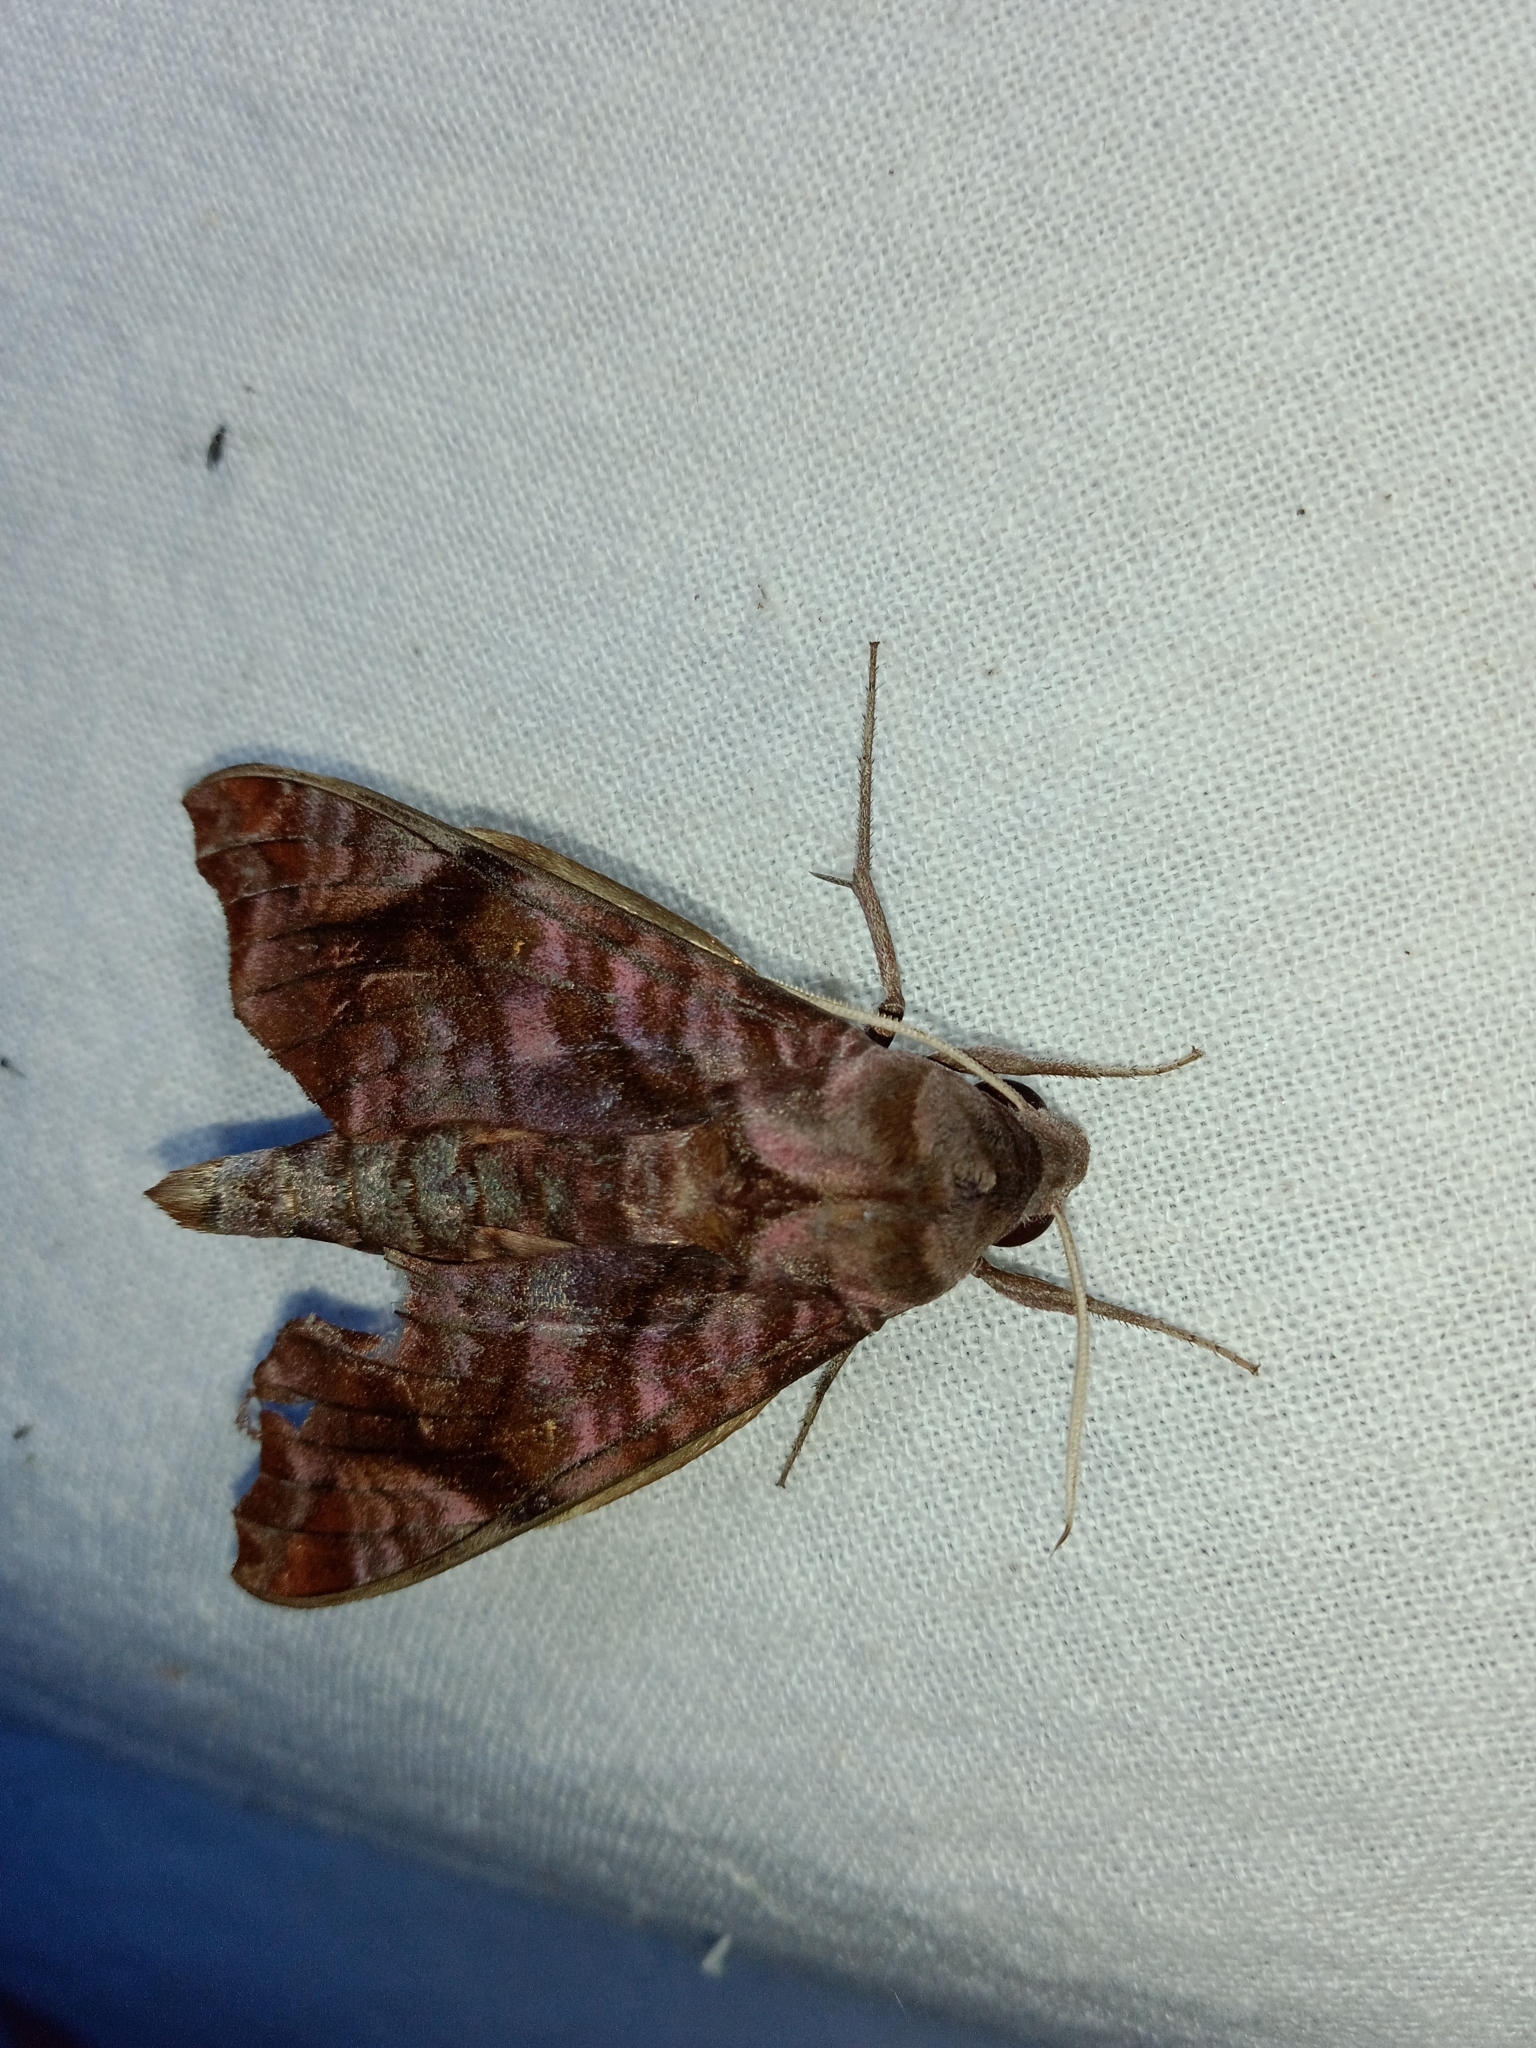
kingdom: Animalia
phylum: Arthropoda
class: Insecta
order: Lepidoptera
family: Sphingidae
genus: Acosmeryx
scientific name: Acosmeryx anceus
